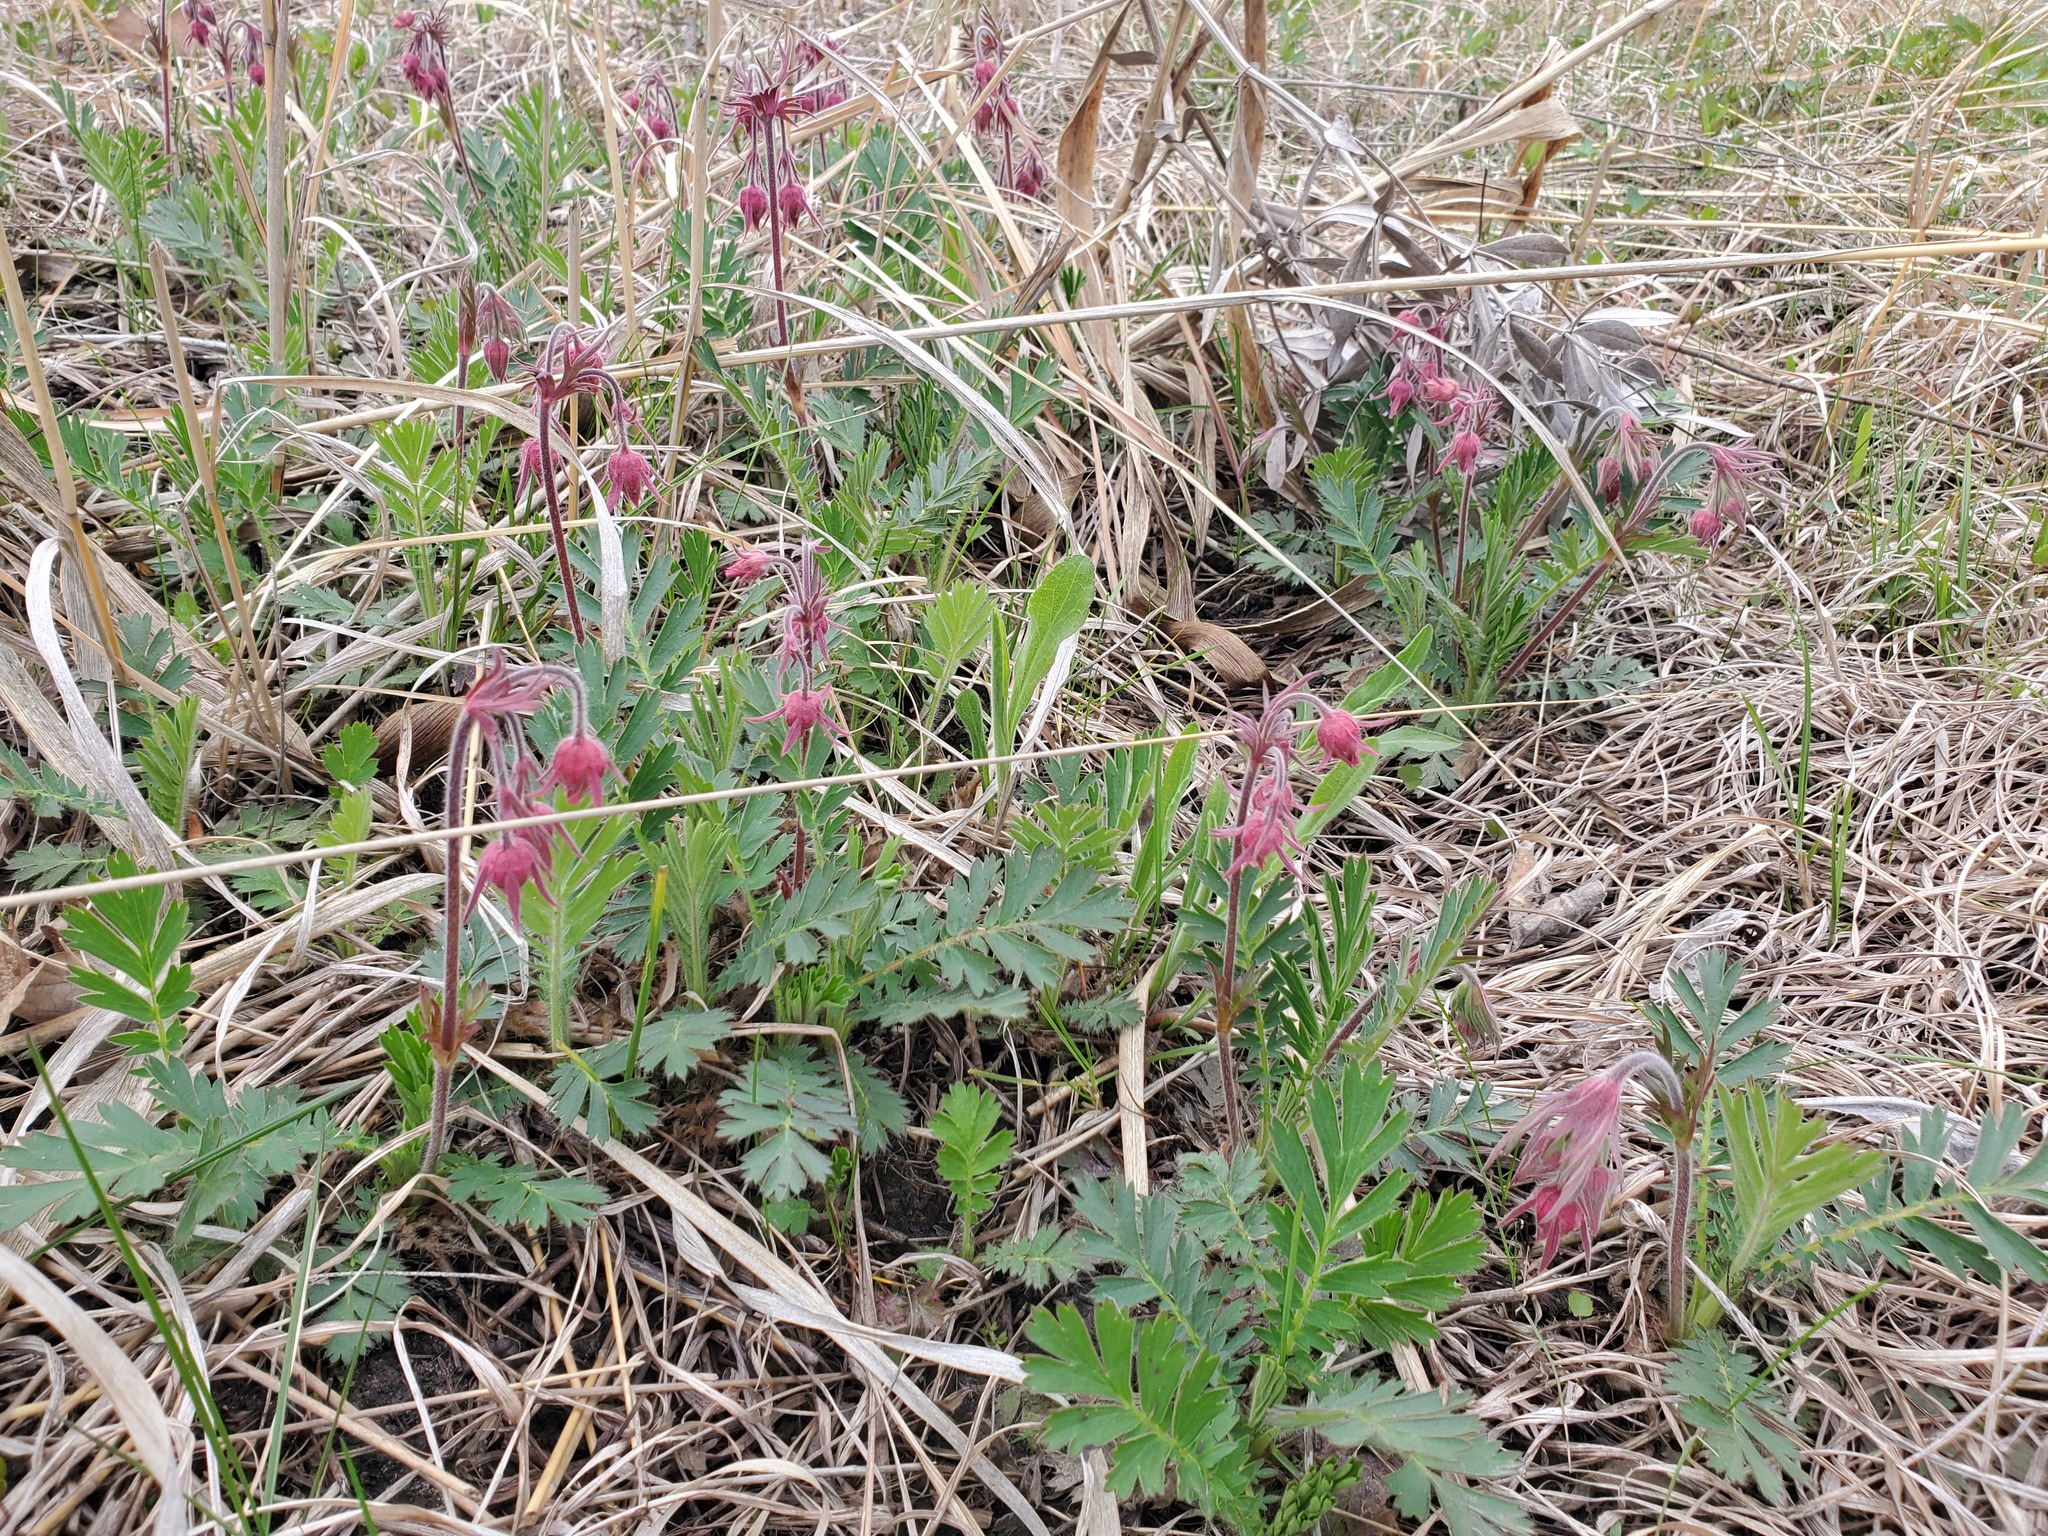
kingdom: Plantae
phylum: Tracheophyta
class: Magnoliopsida
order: Rosales
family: Rosaceae
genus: Geum
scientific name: Geum triflorum
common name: Old man's whiskers
